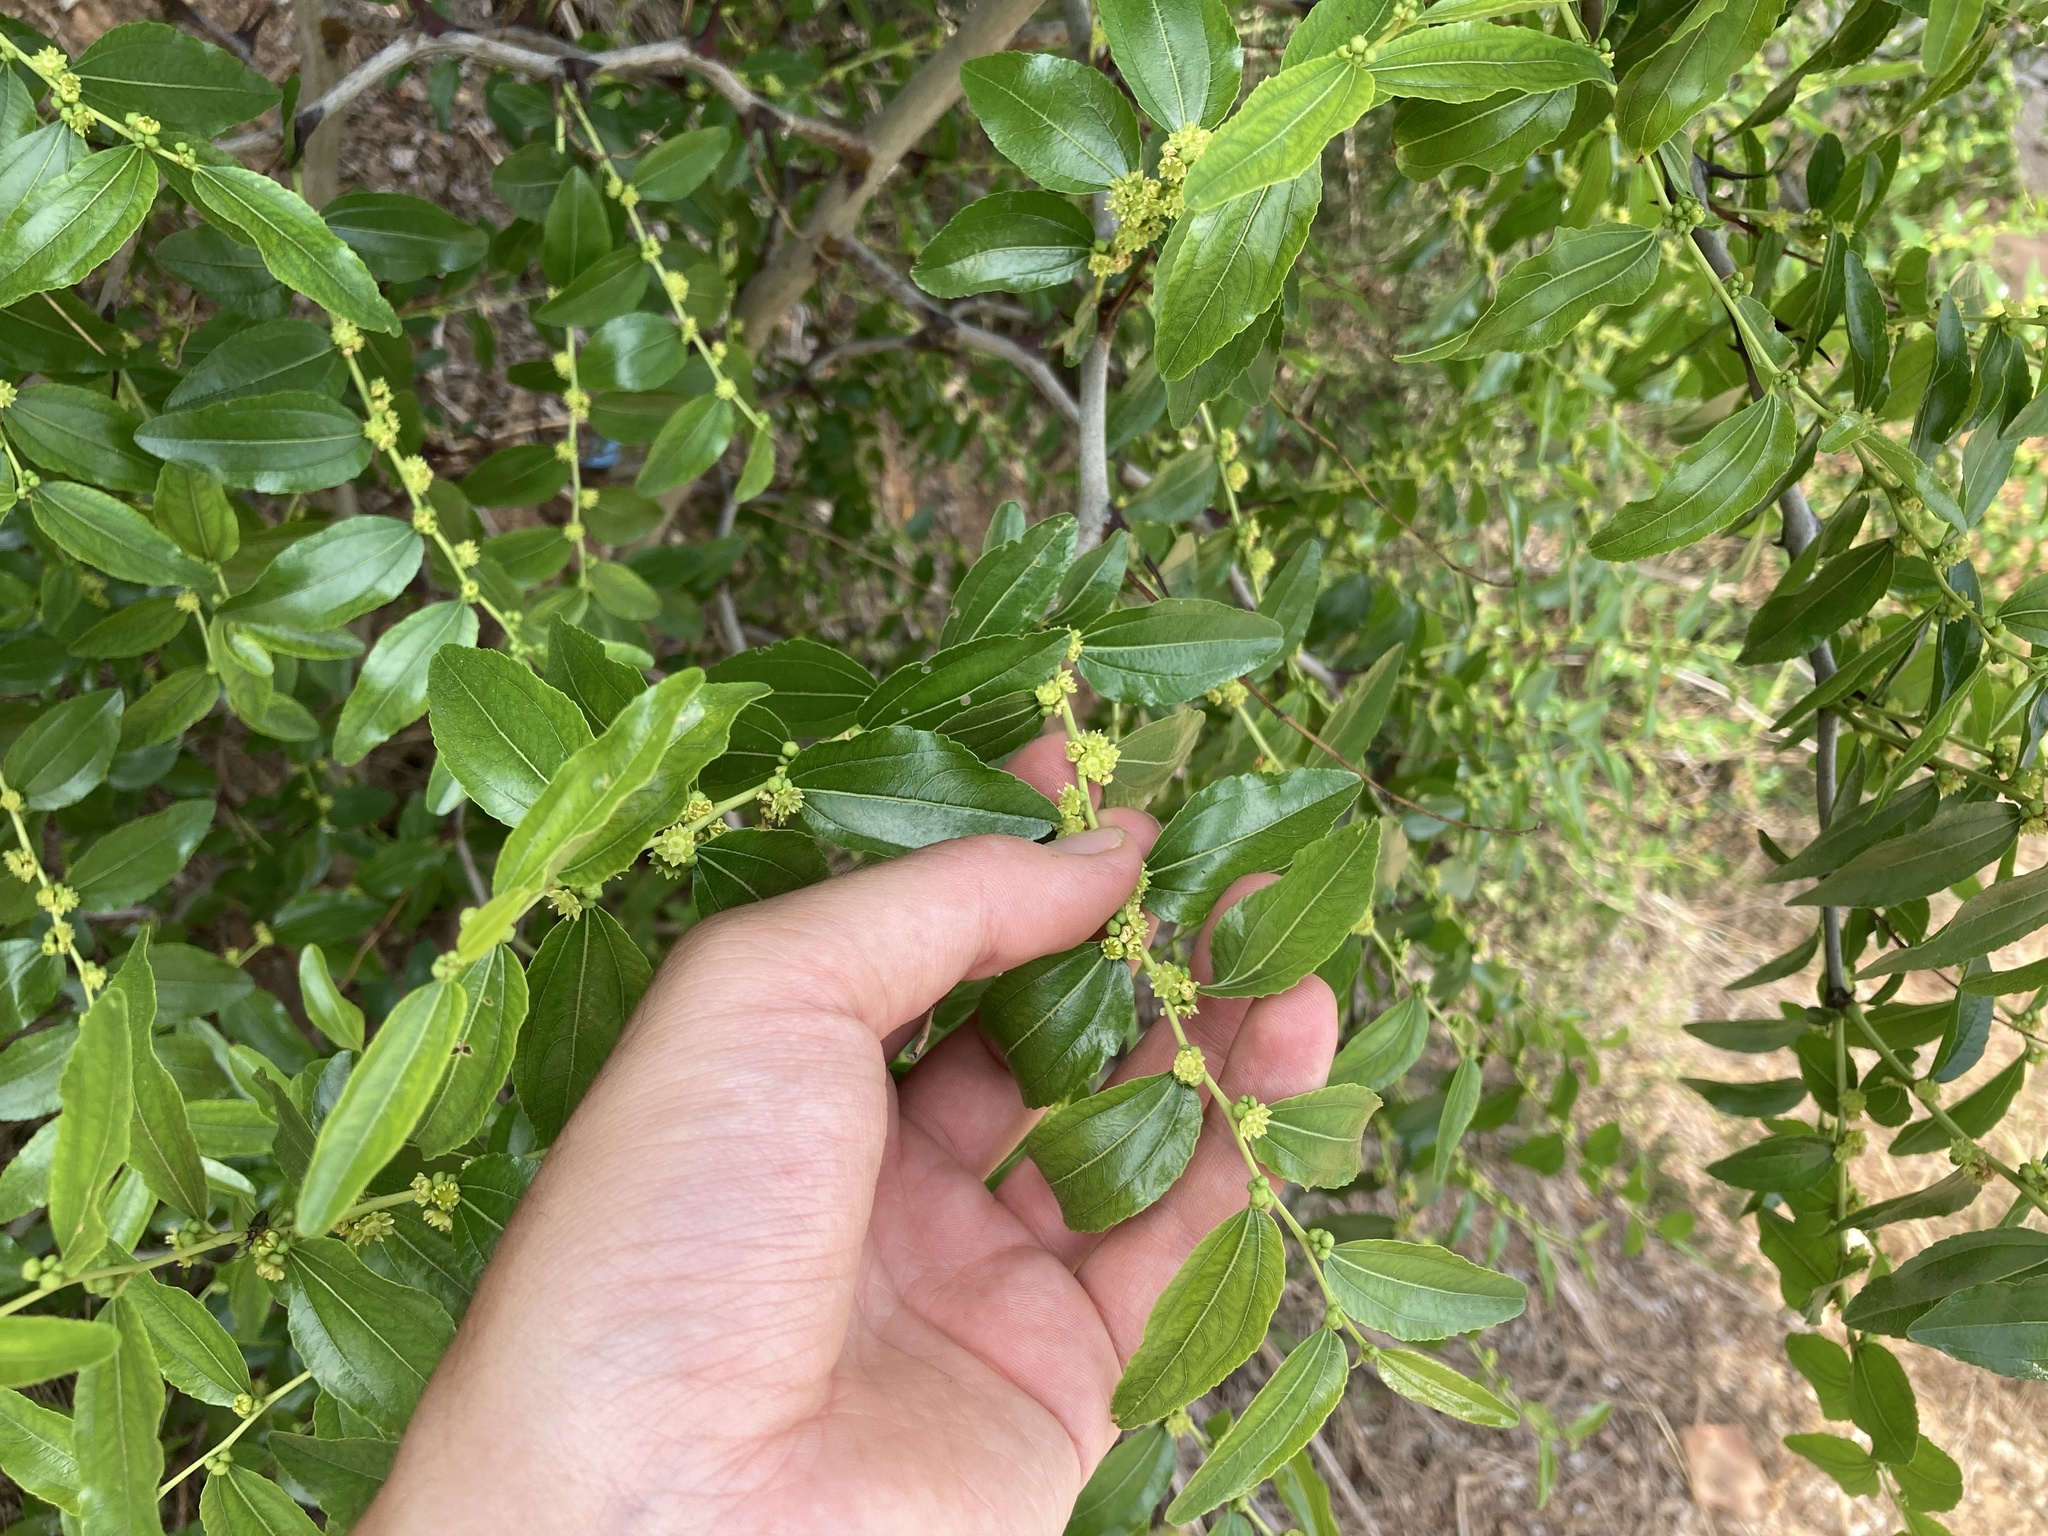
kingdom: Plantae
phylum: Tracheophyta
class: Magnoliopsida
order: Rosales
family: Rhamnaceae
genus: Ziziphus
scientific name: Ziziphus jujuba
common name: Jujube red date
